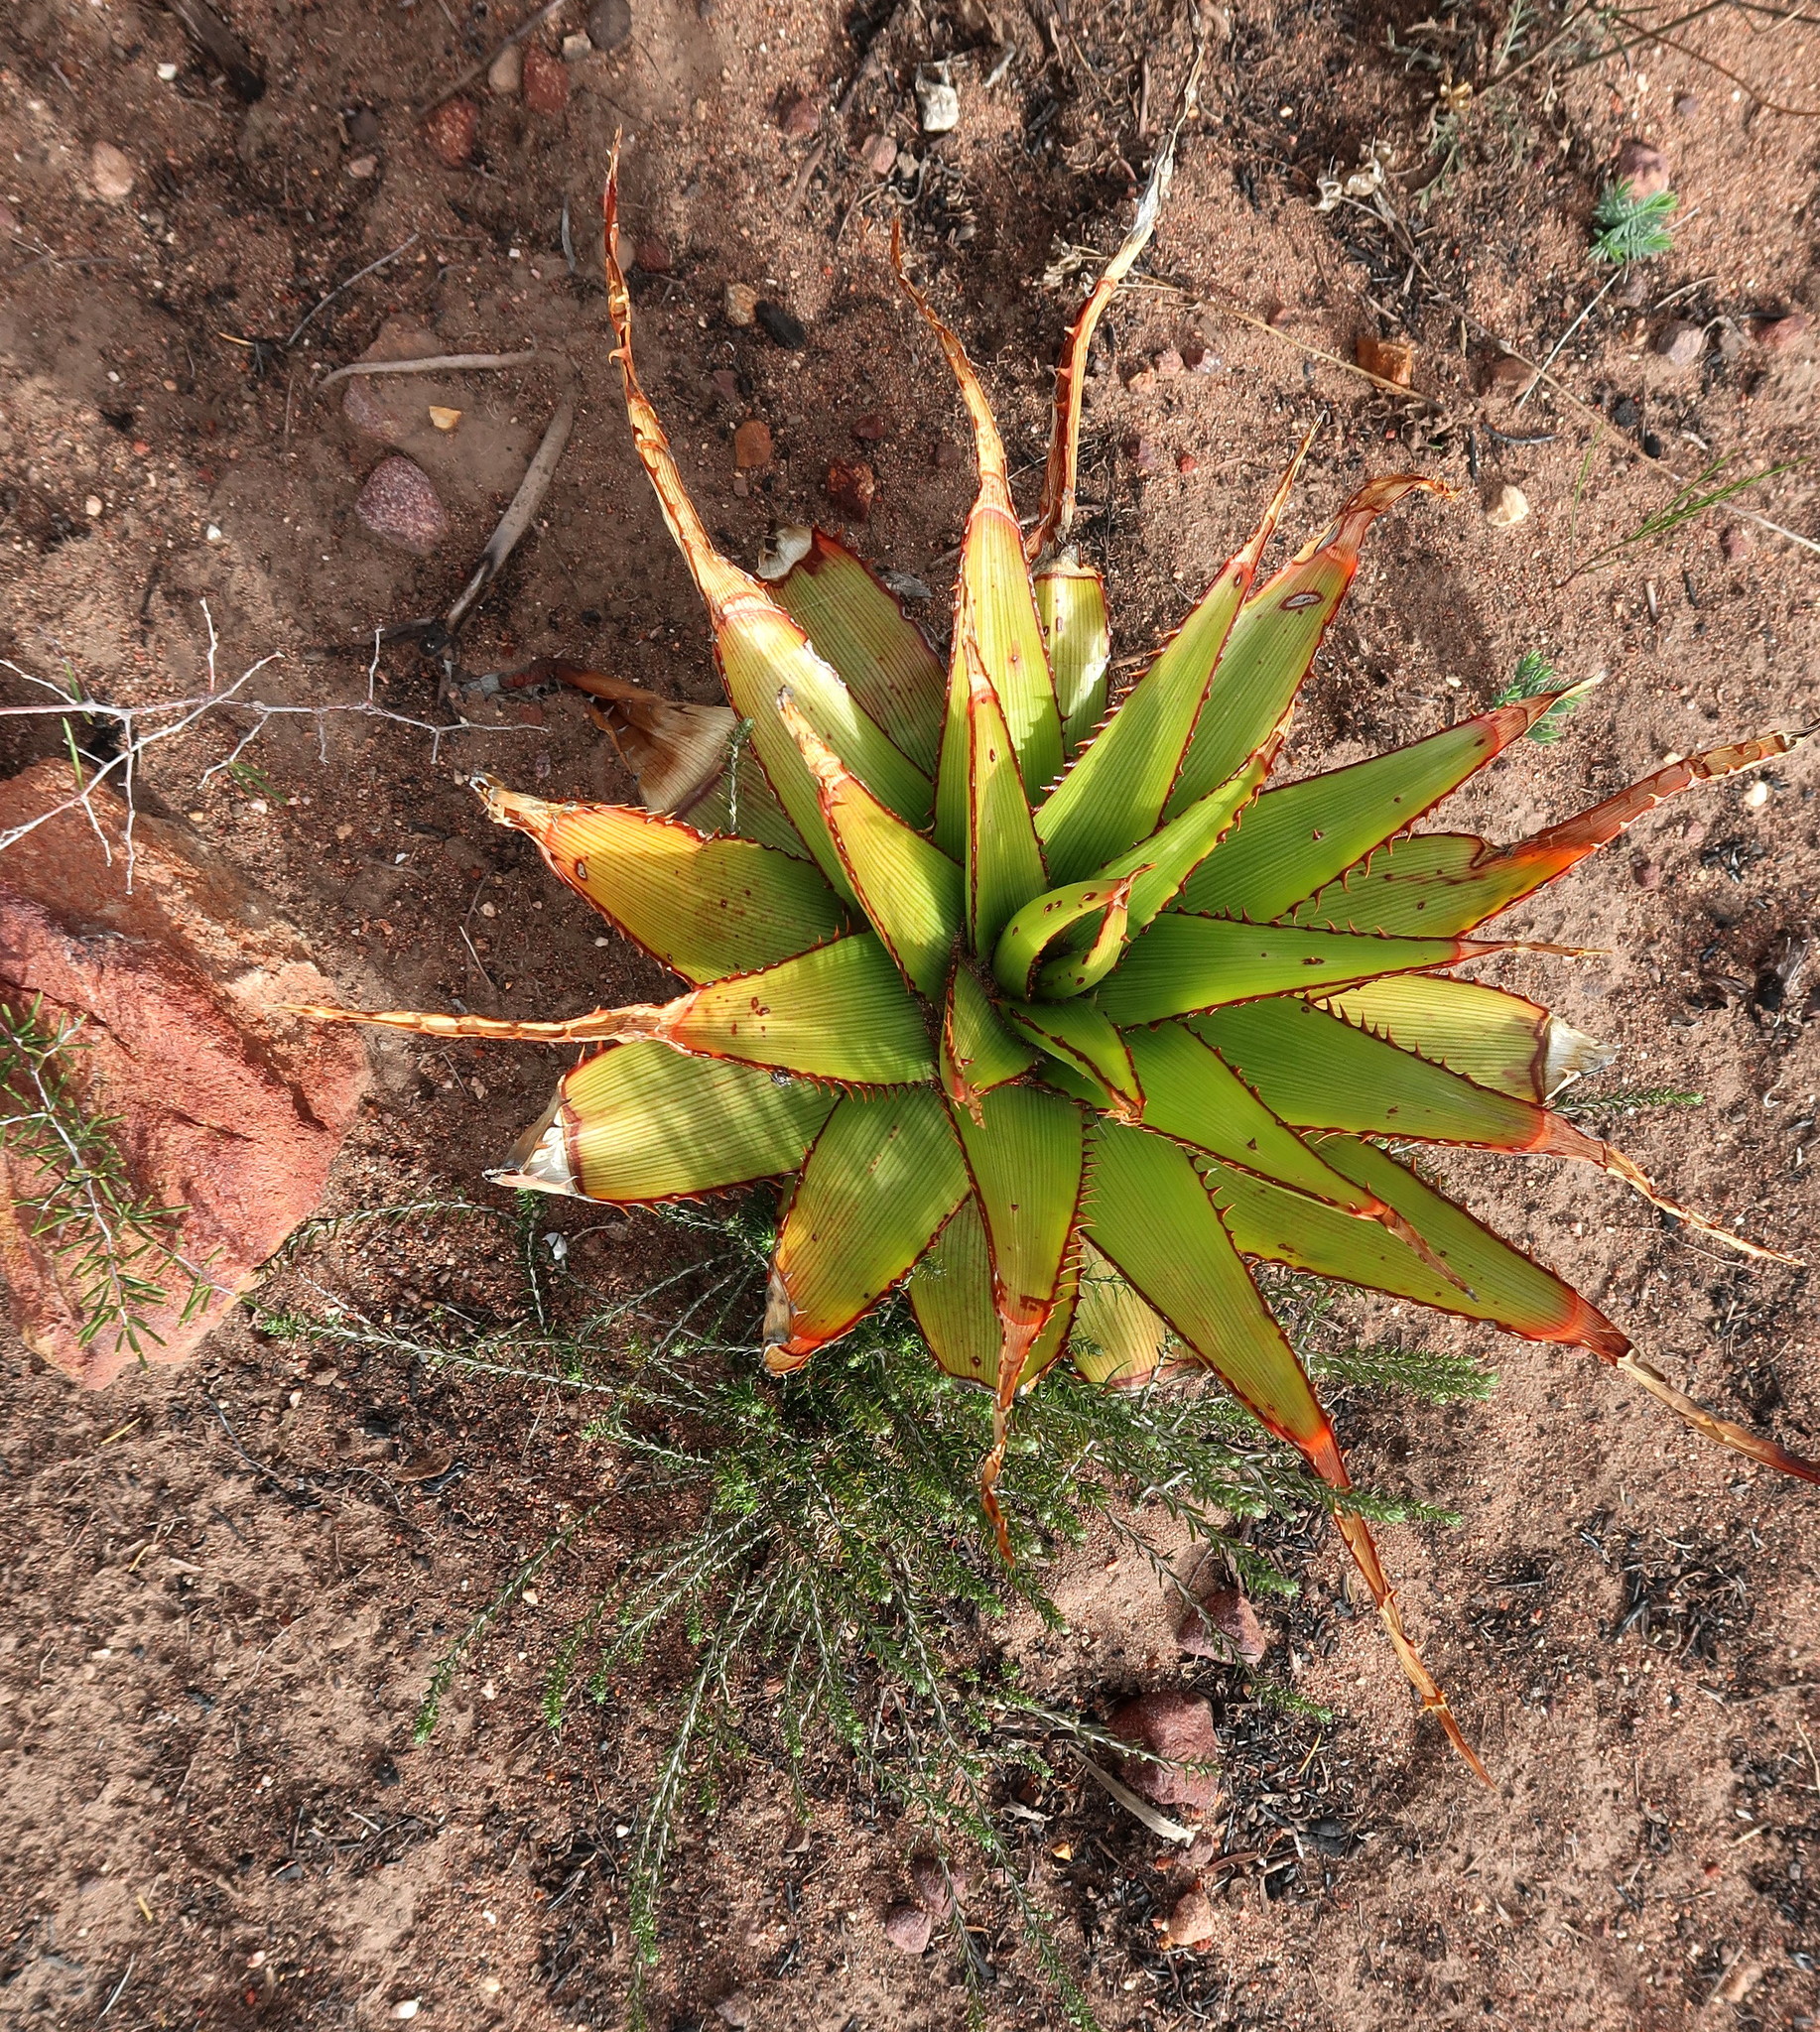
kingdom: Plantae
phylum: Tracheophyta
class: Liliopsida
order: Asparagales
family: Asphodelaceae
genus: Aloe
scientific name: Aloe lineata
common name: Lined red-spined aloe
